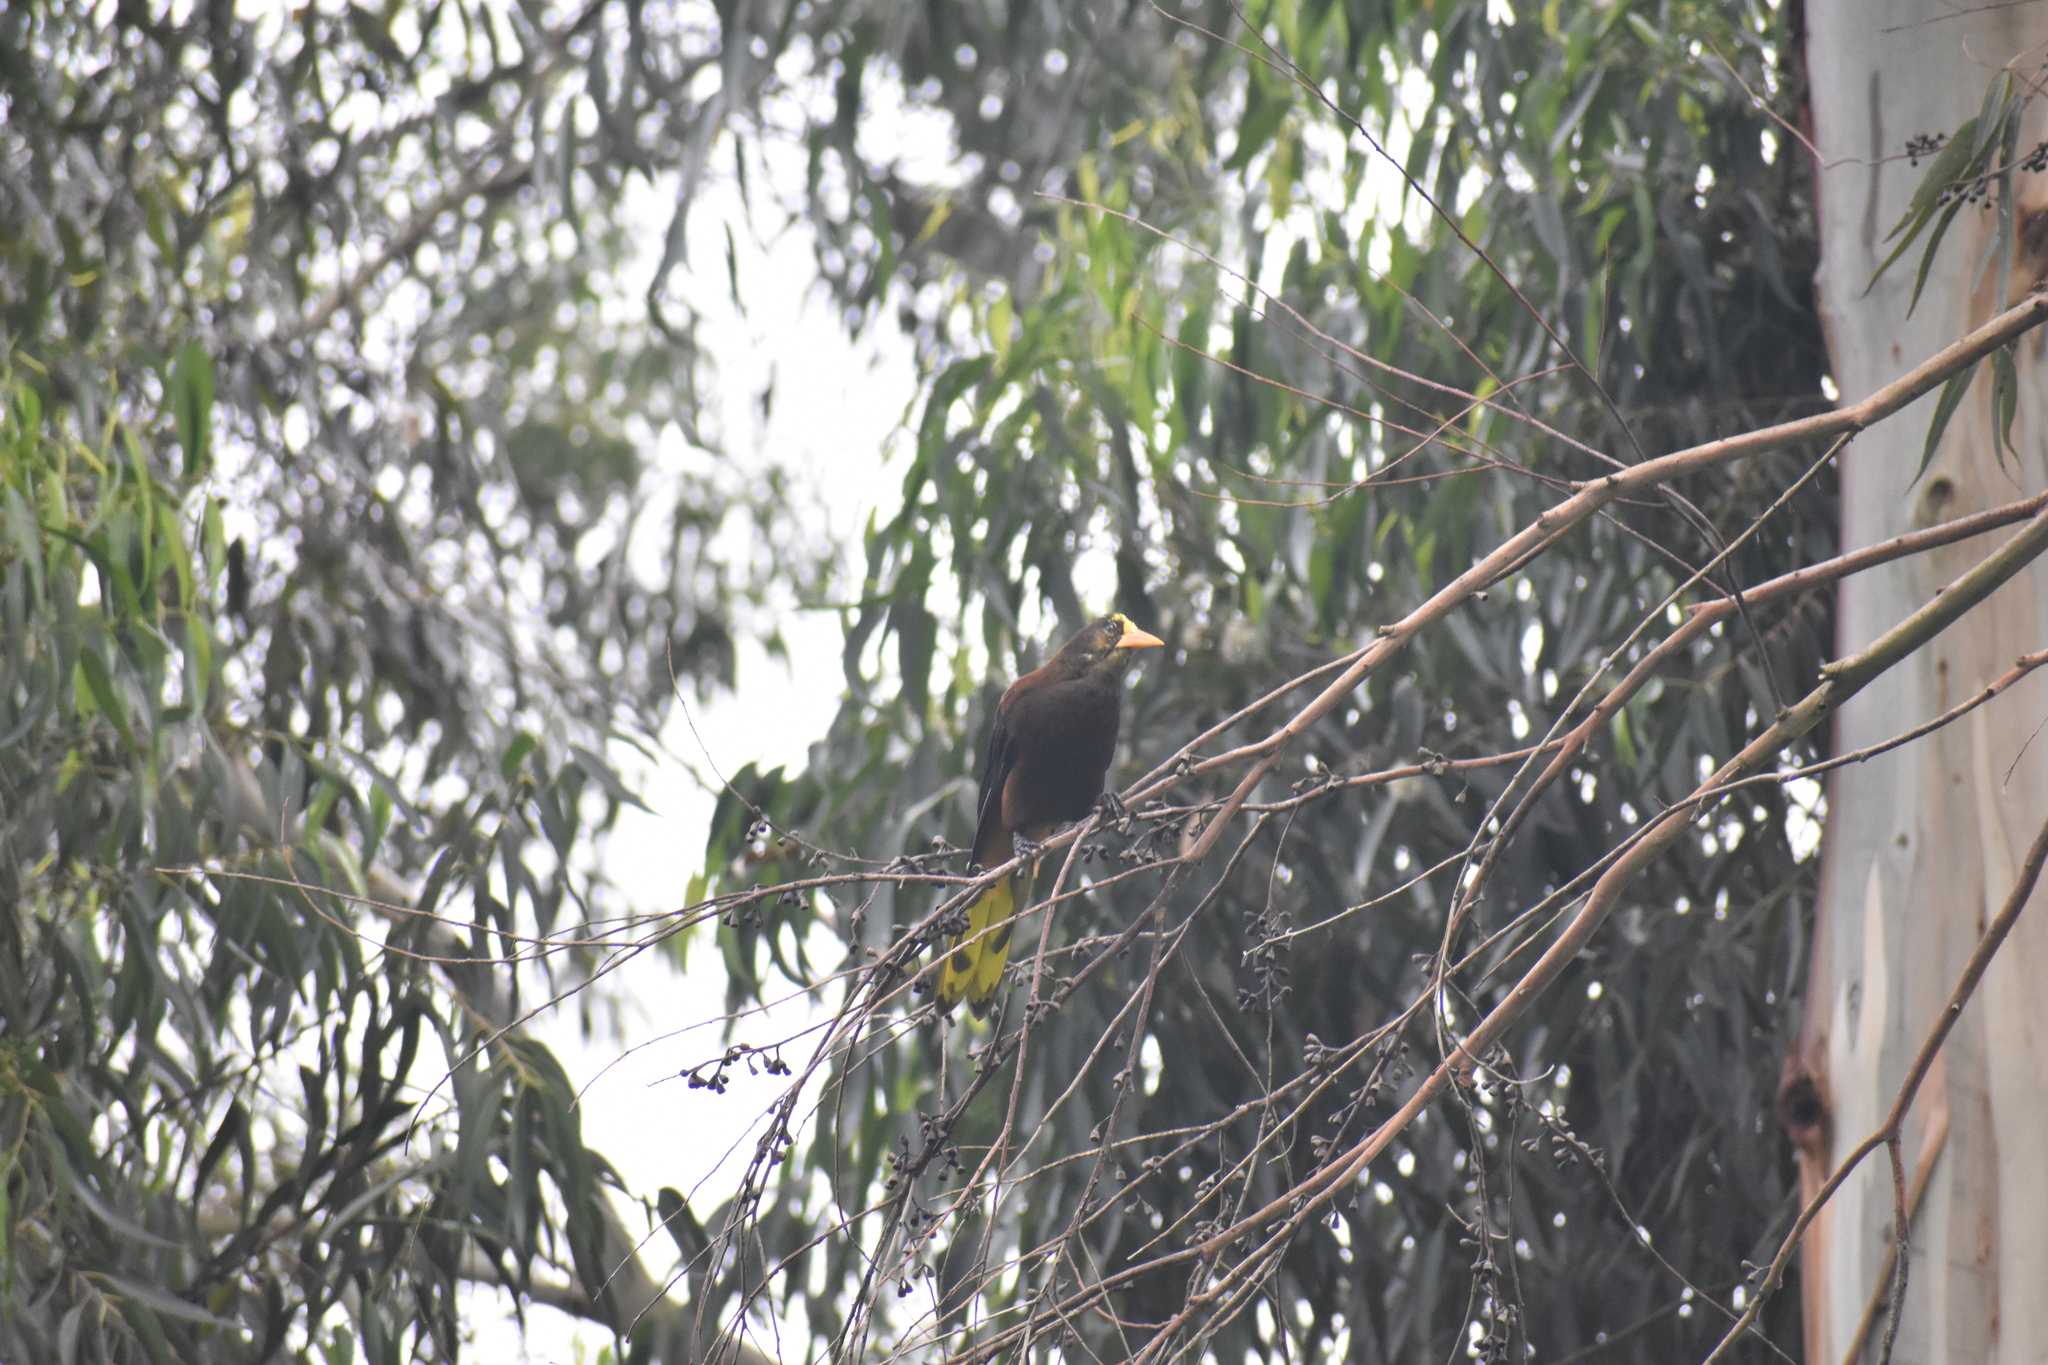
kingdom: Animalia
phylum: Chordata
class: Aves
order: Passeriformes
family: Icteridae
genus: Psarocolius
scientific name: Psarocolius angustifrons
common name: Russet-backed oropendola
